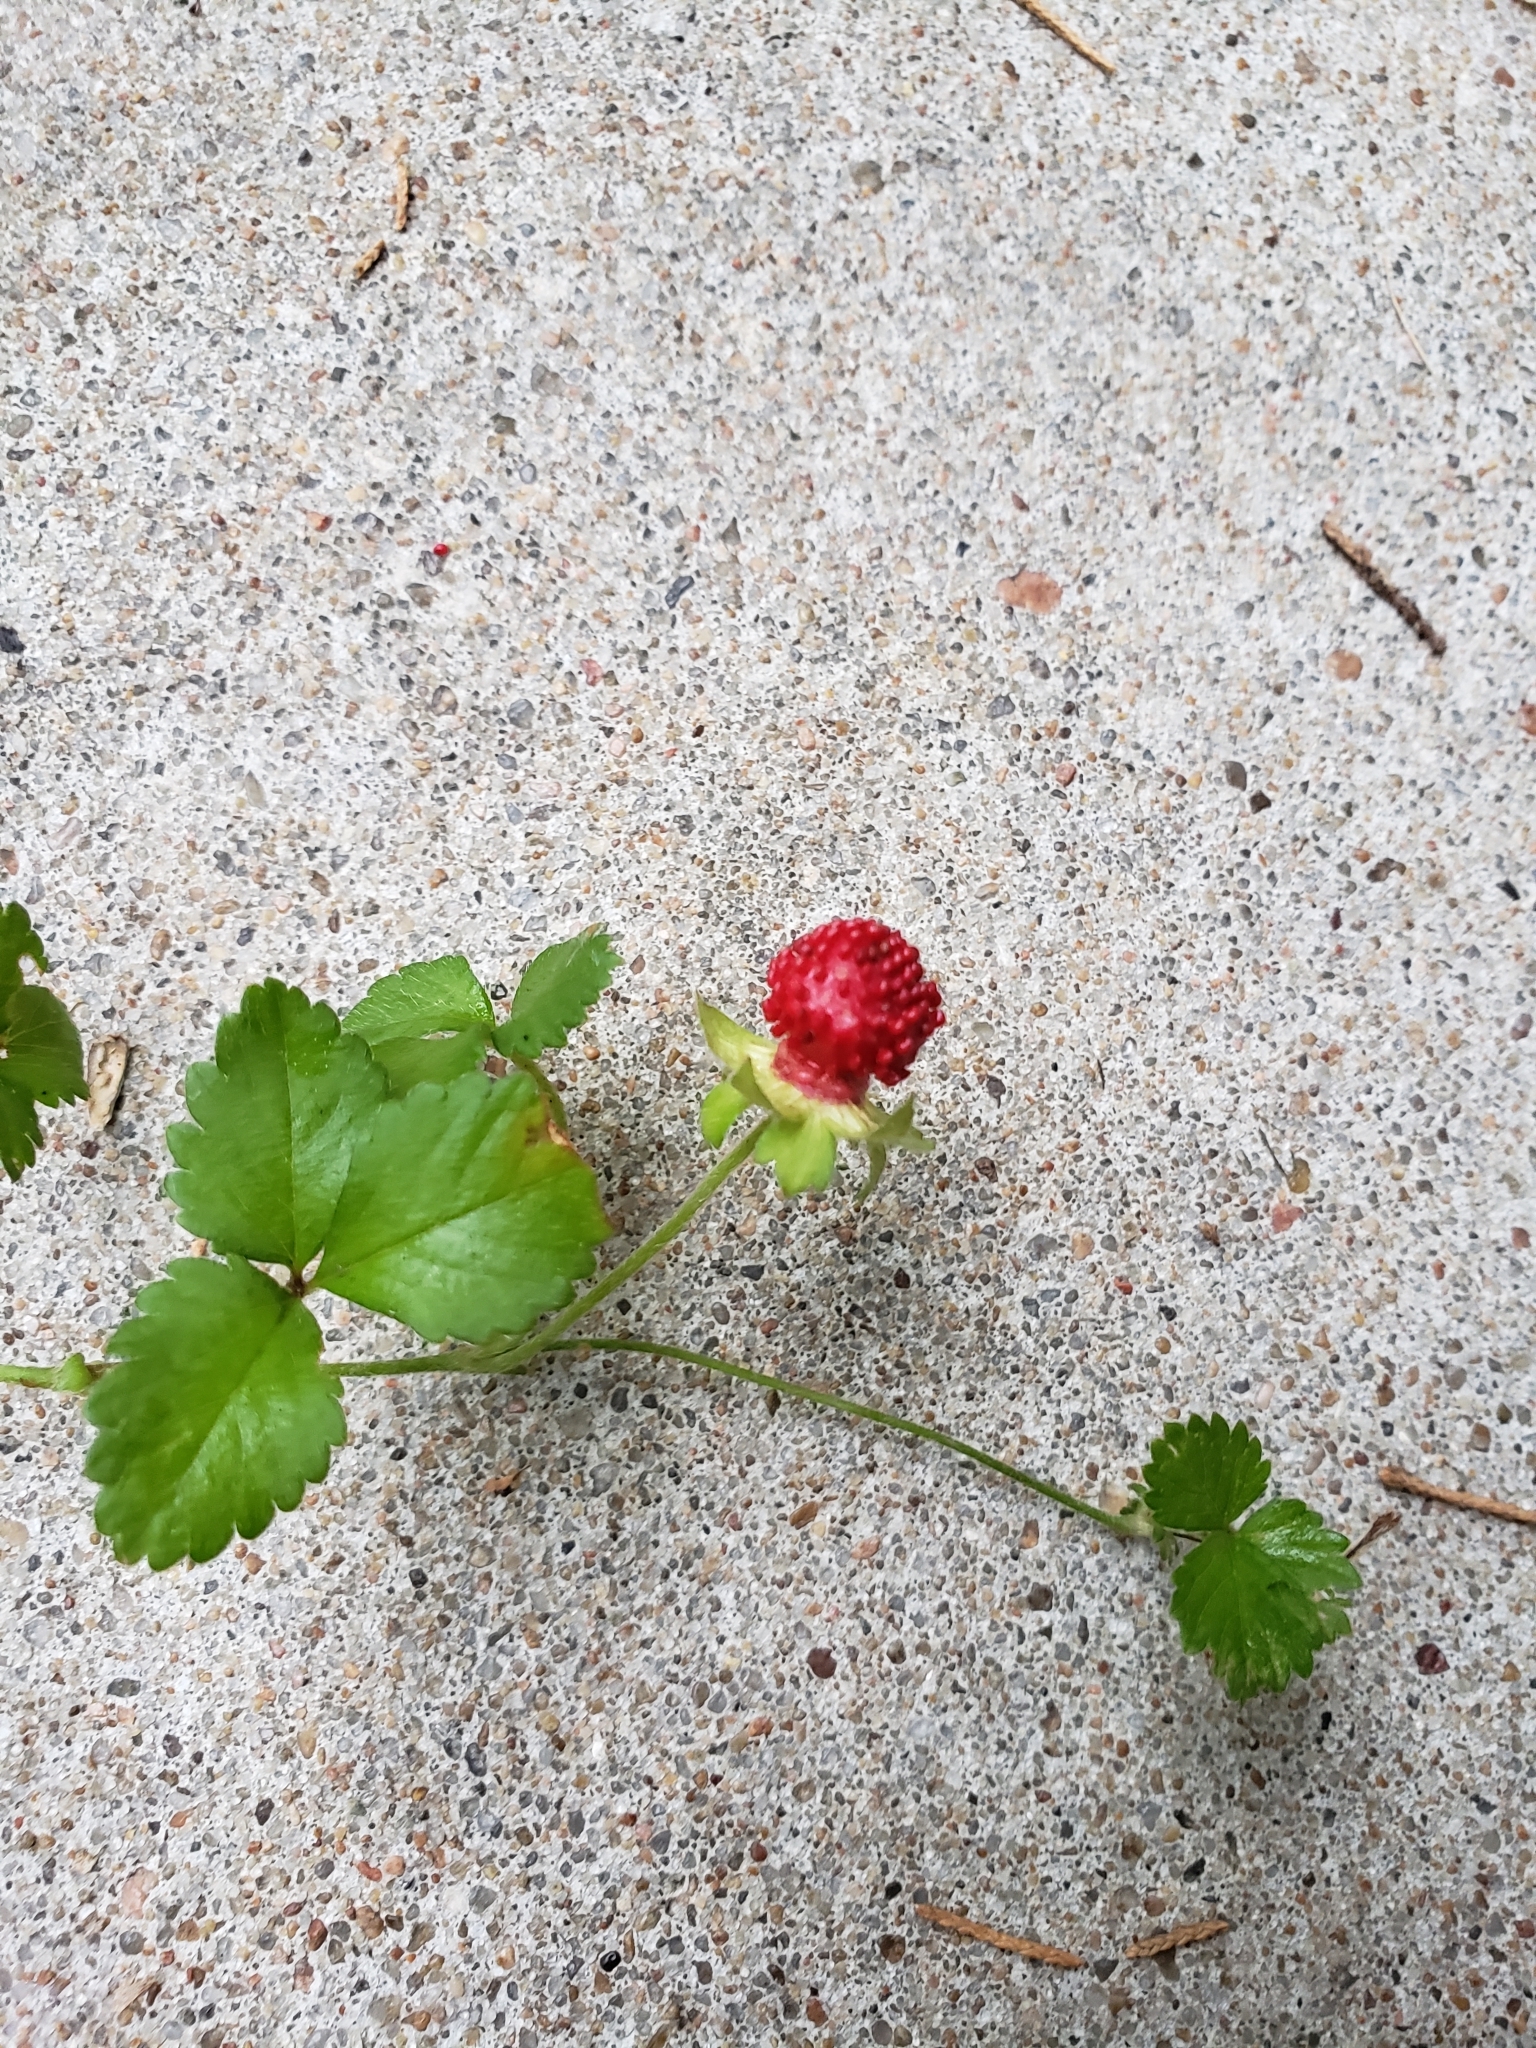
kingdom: Plantae
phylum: Tracheophyta
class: Magnoliopsida
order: Rosales
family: Rosaceae
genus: Potentilla
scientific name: Potentilla indica
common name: Yellow-flowered strawberry
